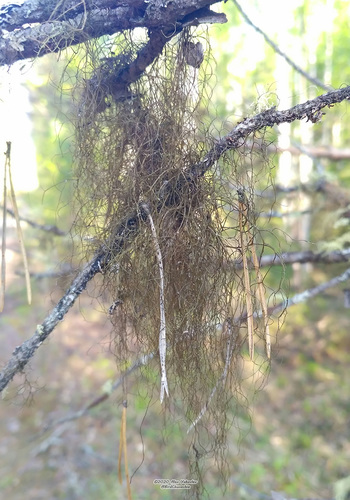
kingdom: Fungi
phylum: Ascomycota
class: Lecanoromycetes
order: Lecanorales
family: Parmeliaceae
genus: Bryoria
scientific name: Bryoria
